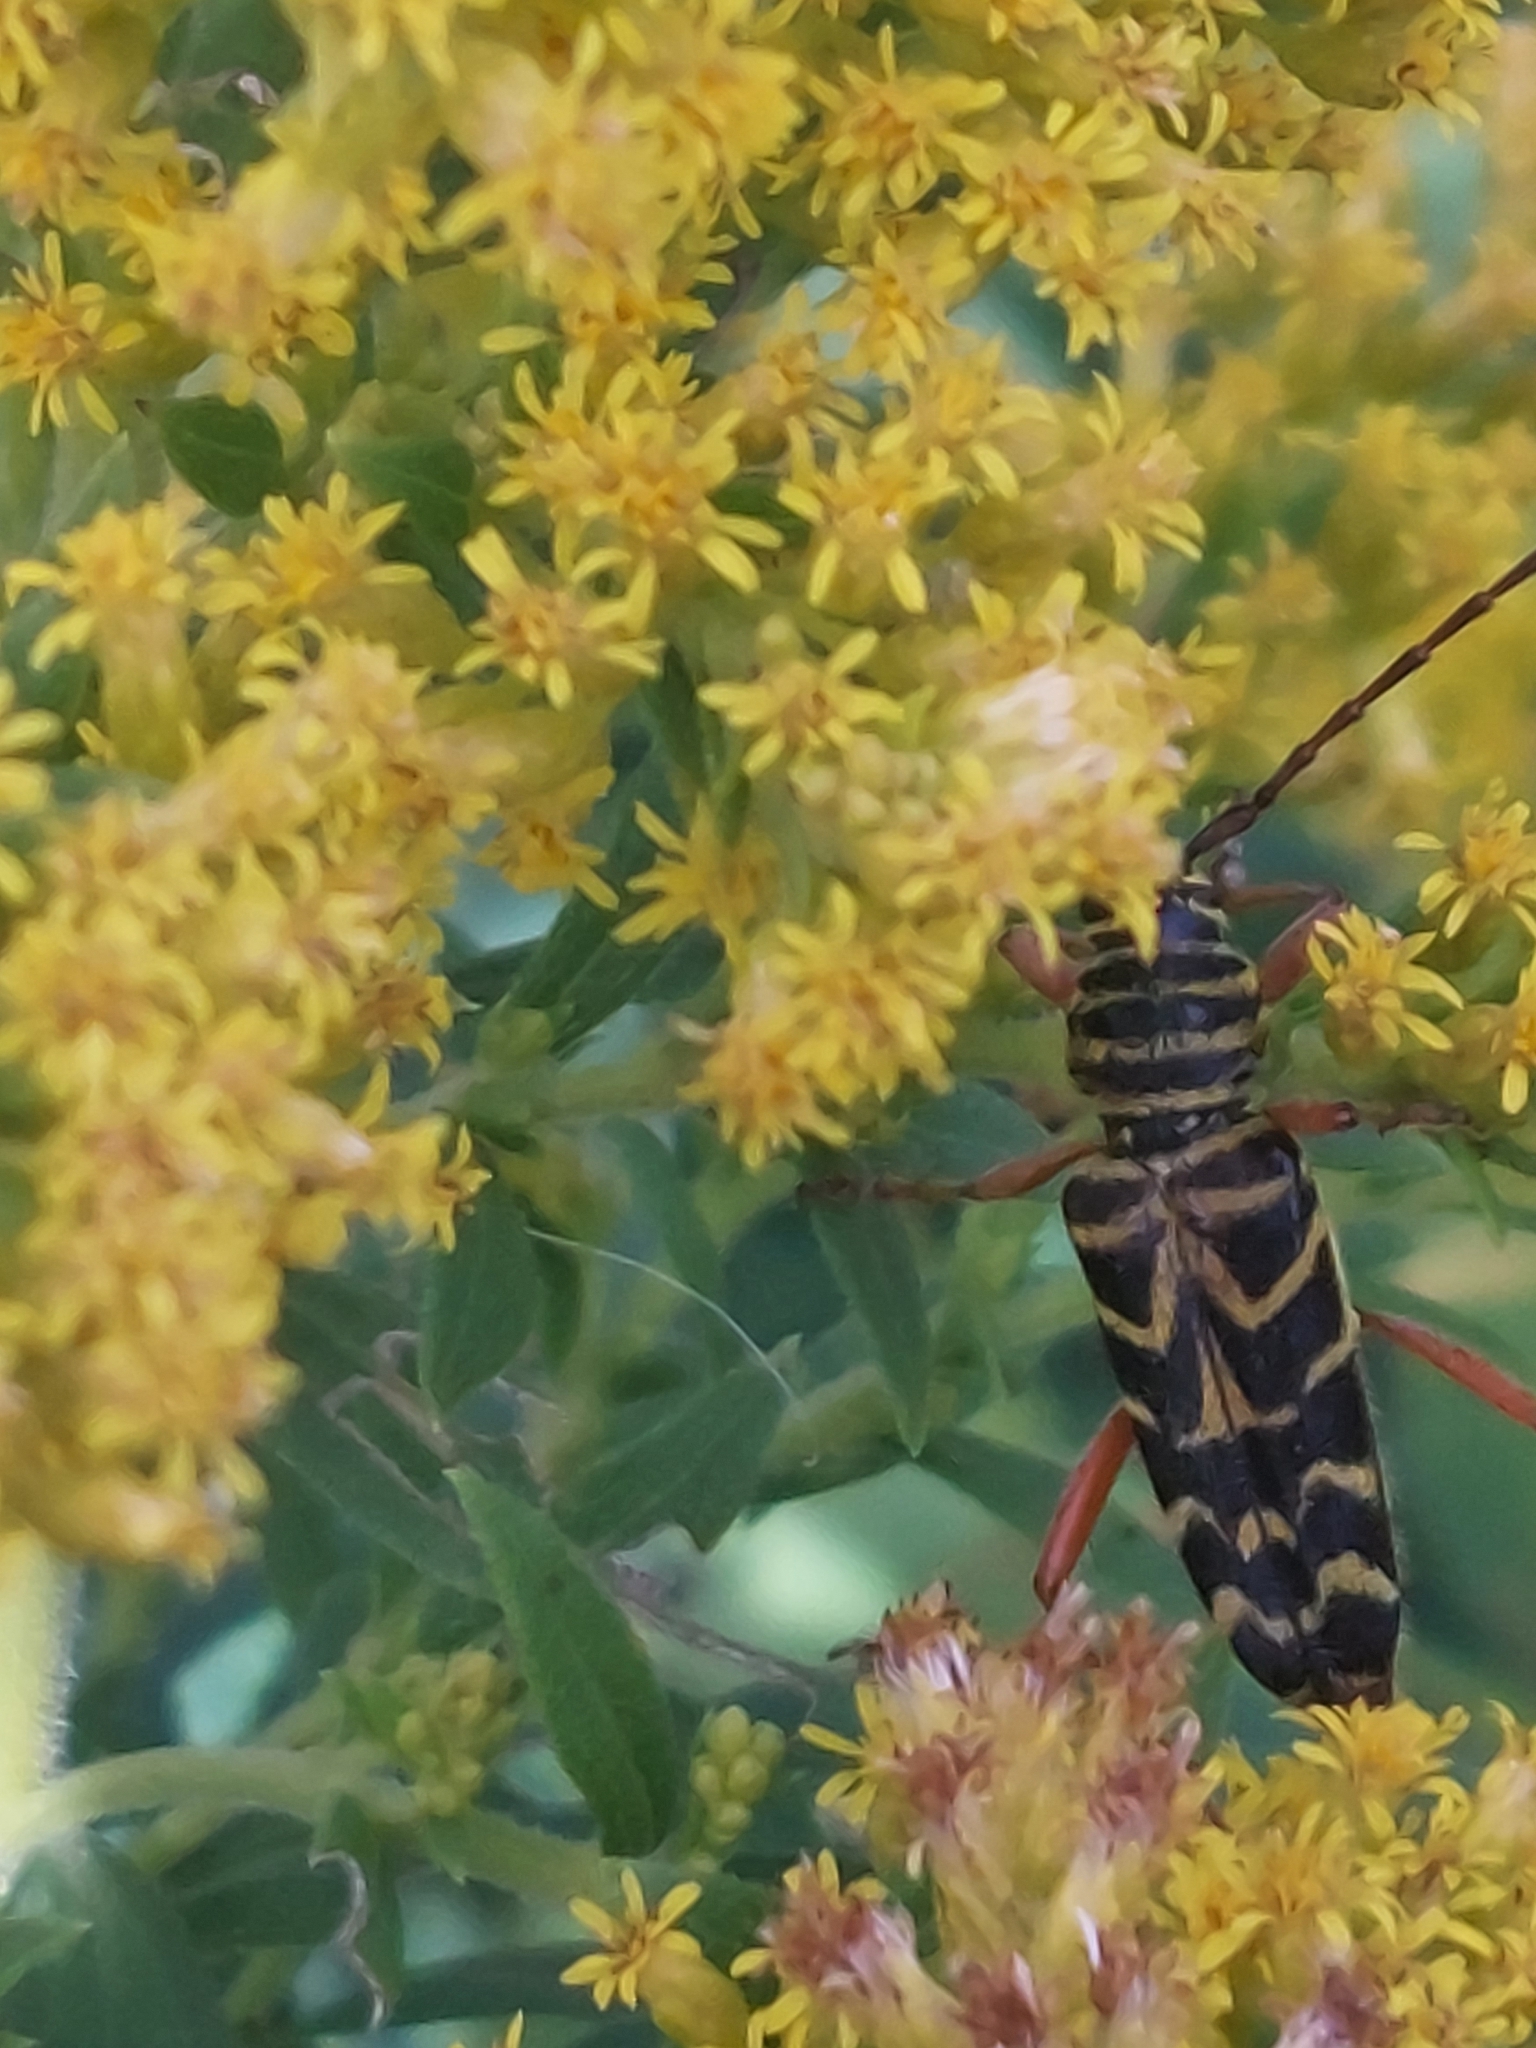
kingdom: Animalia
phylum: Arthropoda
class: Insecta
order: Coleoptera
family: Cerambycidae
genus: Megacyllene
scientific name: Megacyllene robiniae
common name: Locust borer
